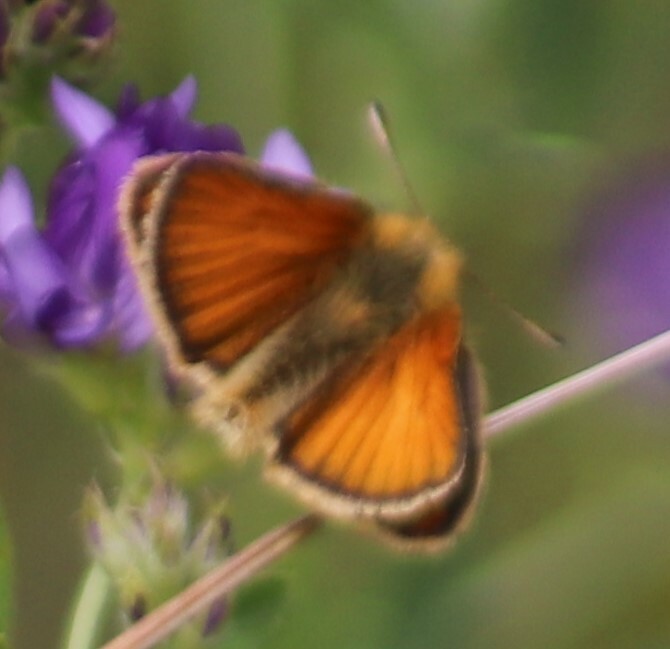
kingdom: Animalia
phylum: Arthropoda
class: Insecta
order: Lepidoptera
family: Hesperiidae
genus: Thymelicus
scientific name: Thymelicus lineola
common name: Essex skipper
